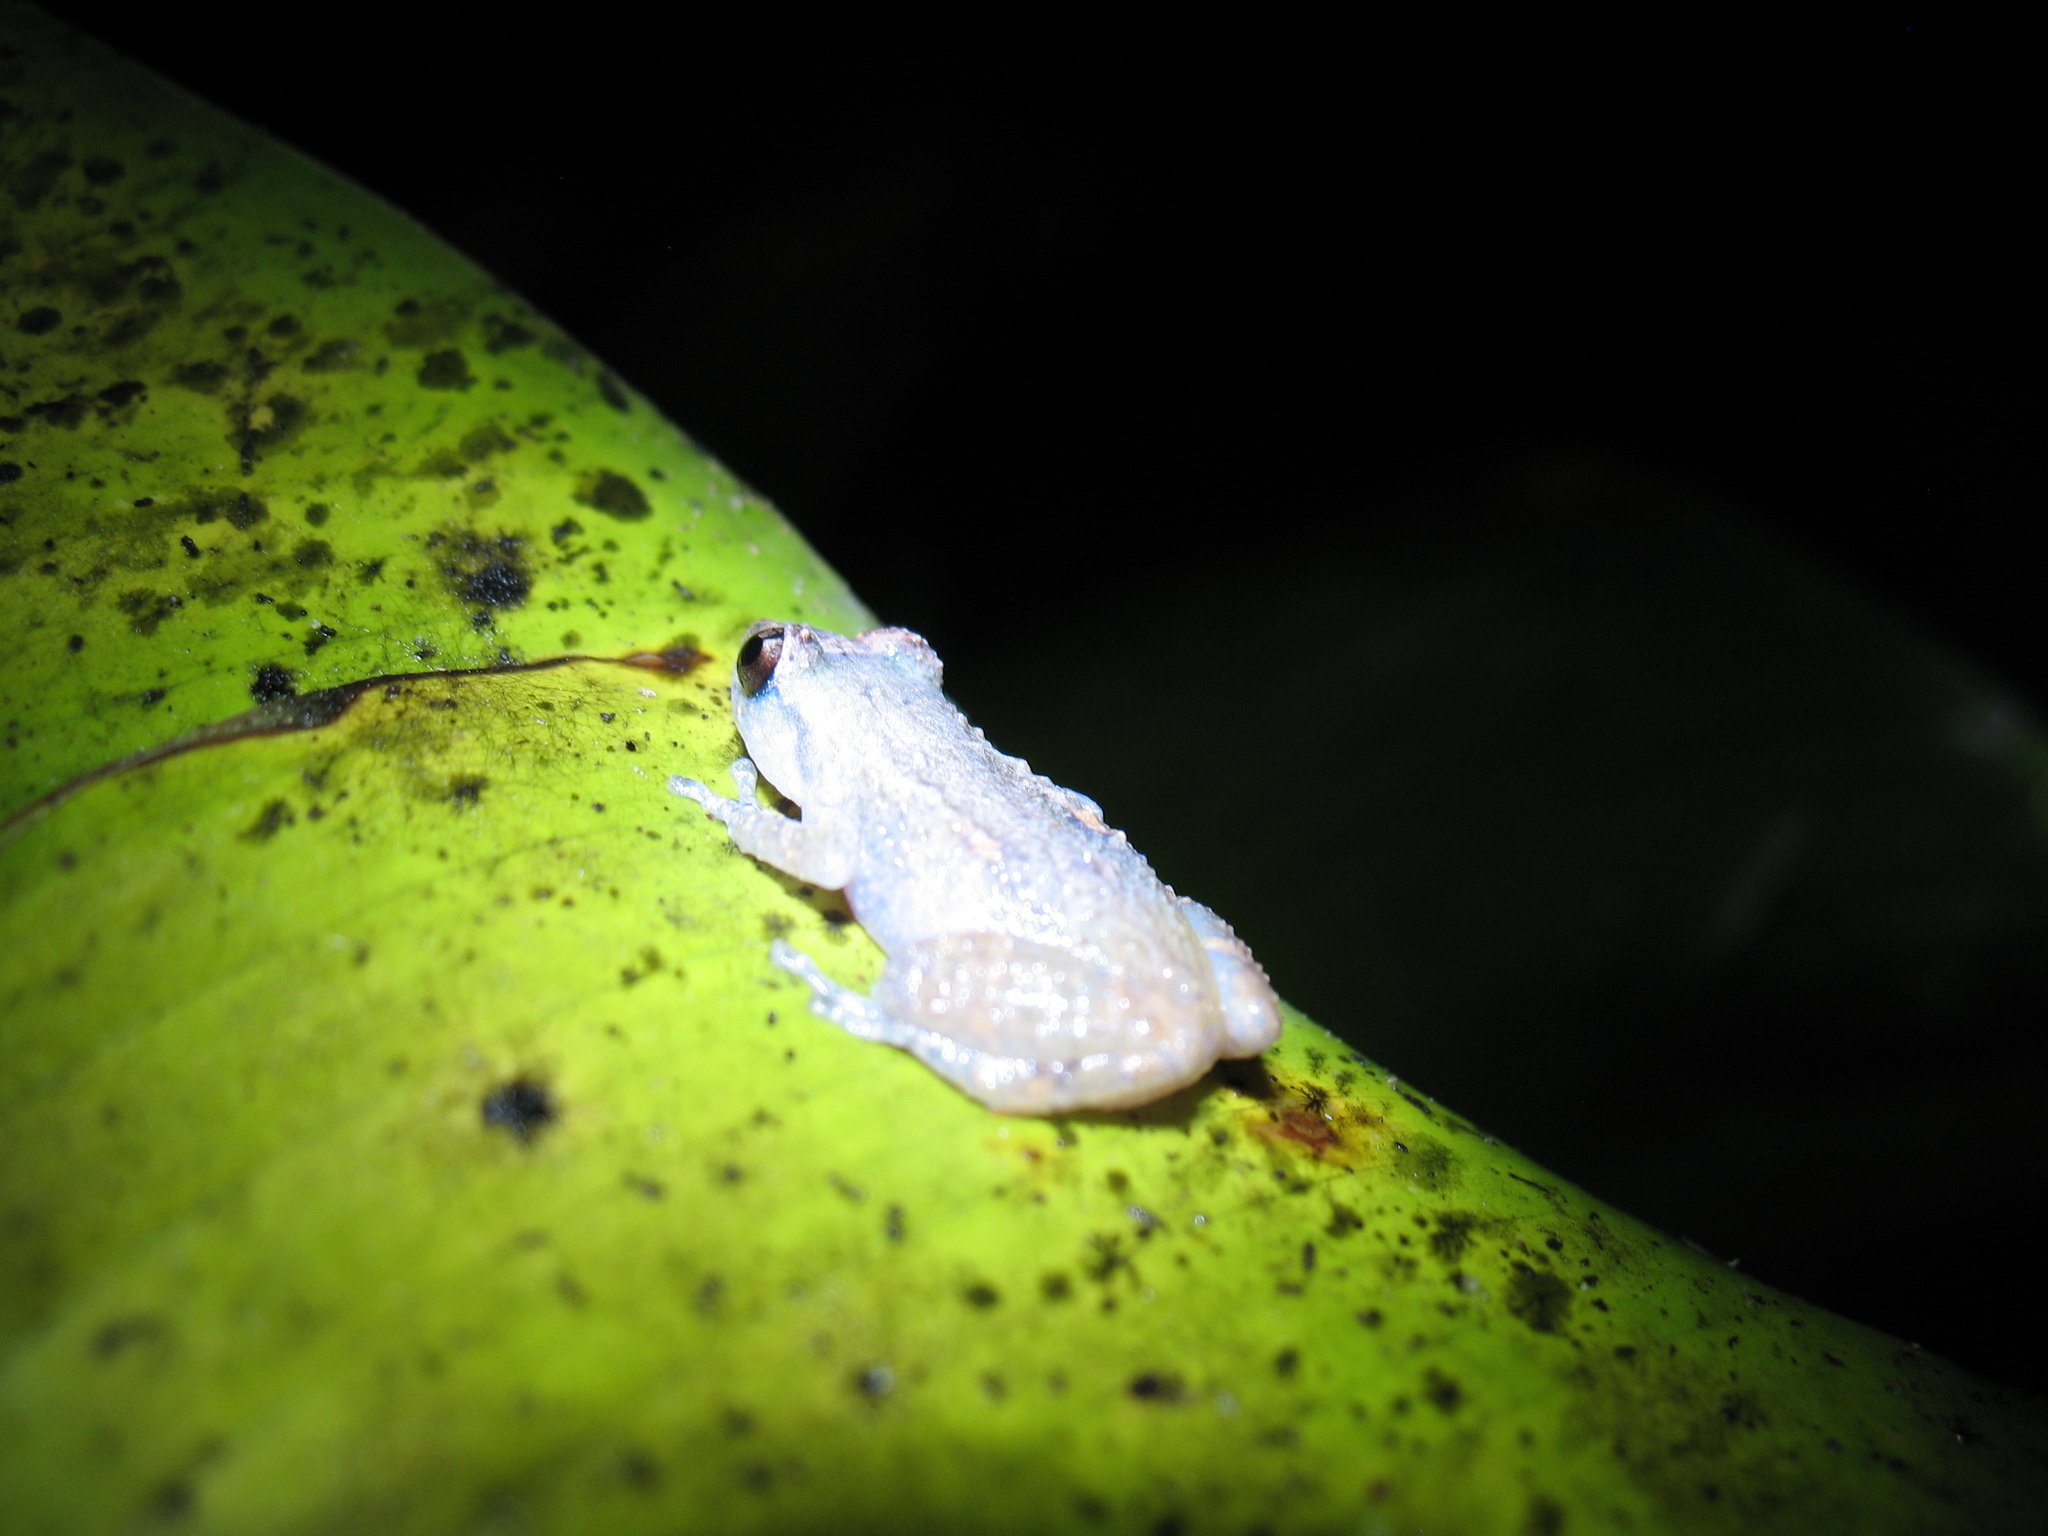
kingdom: Animalia
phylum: Chordata
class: Amphibia
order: Anura
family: Eleutherodactylidae
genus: Diasporus
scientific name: Diasporus diastema
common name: Caretta robber frog
